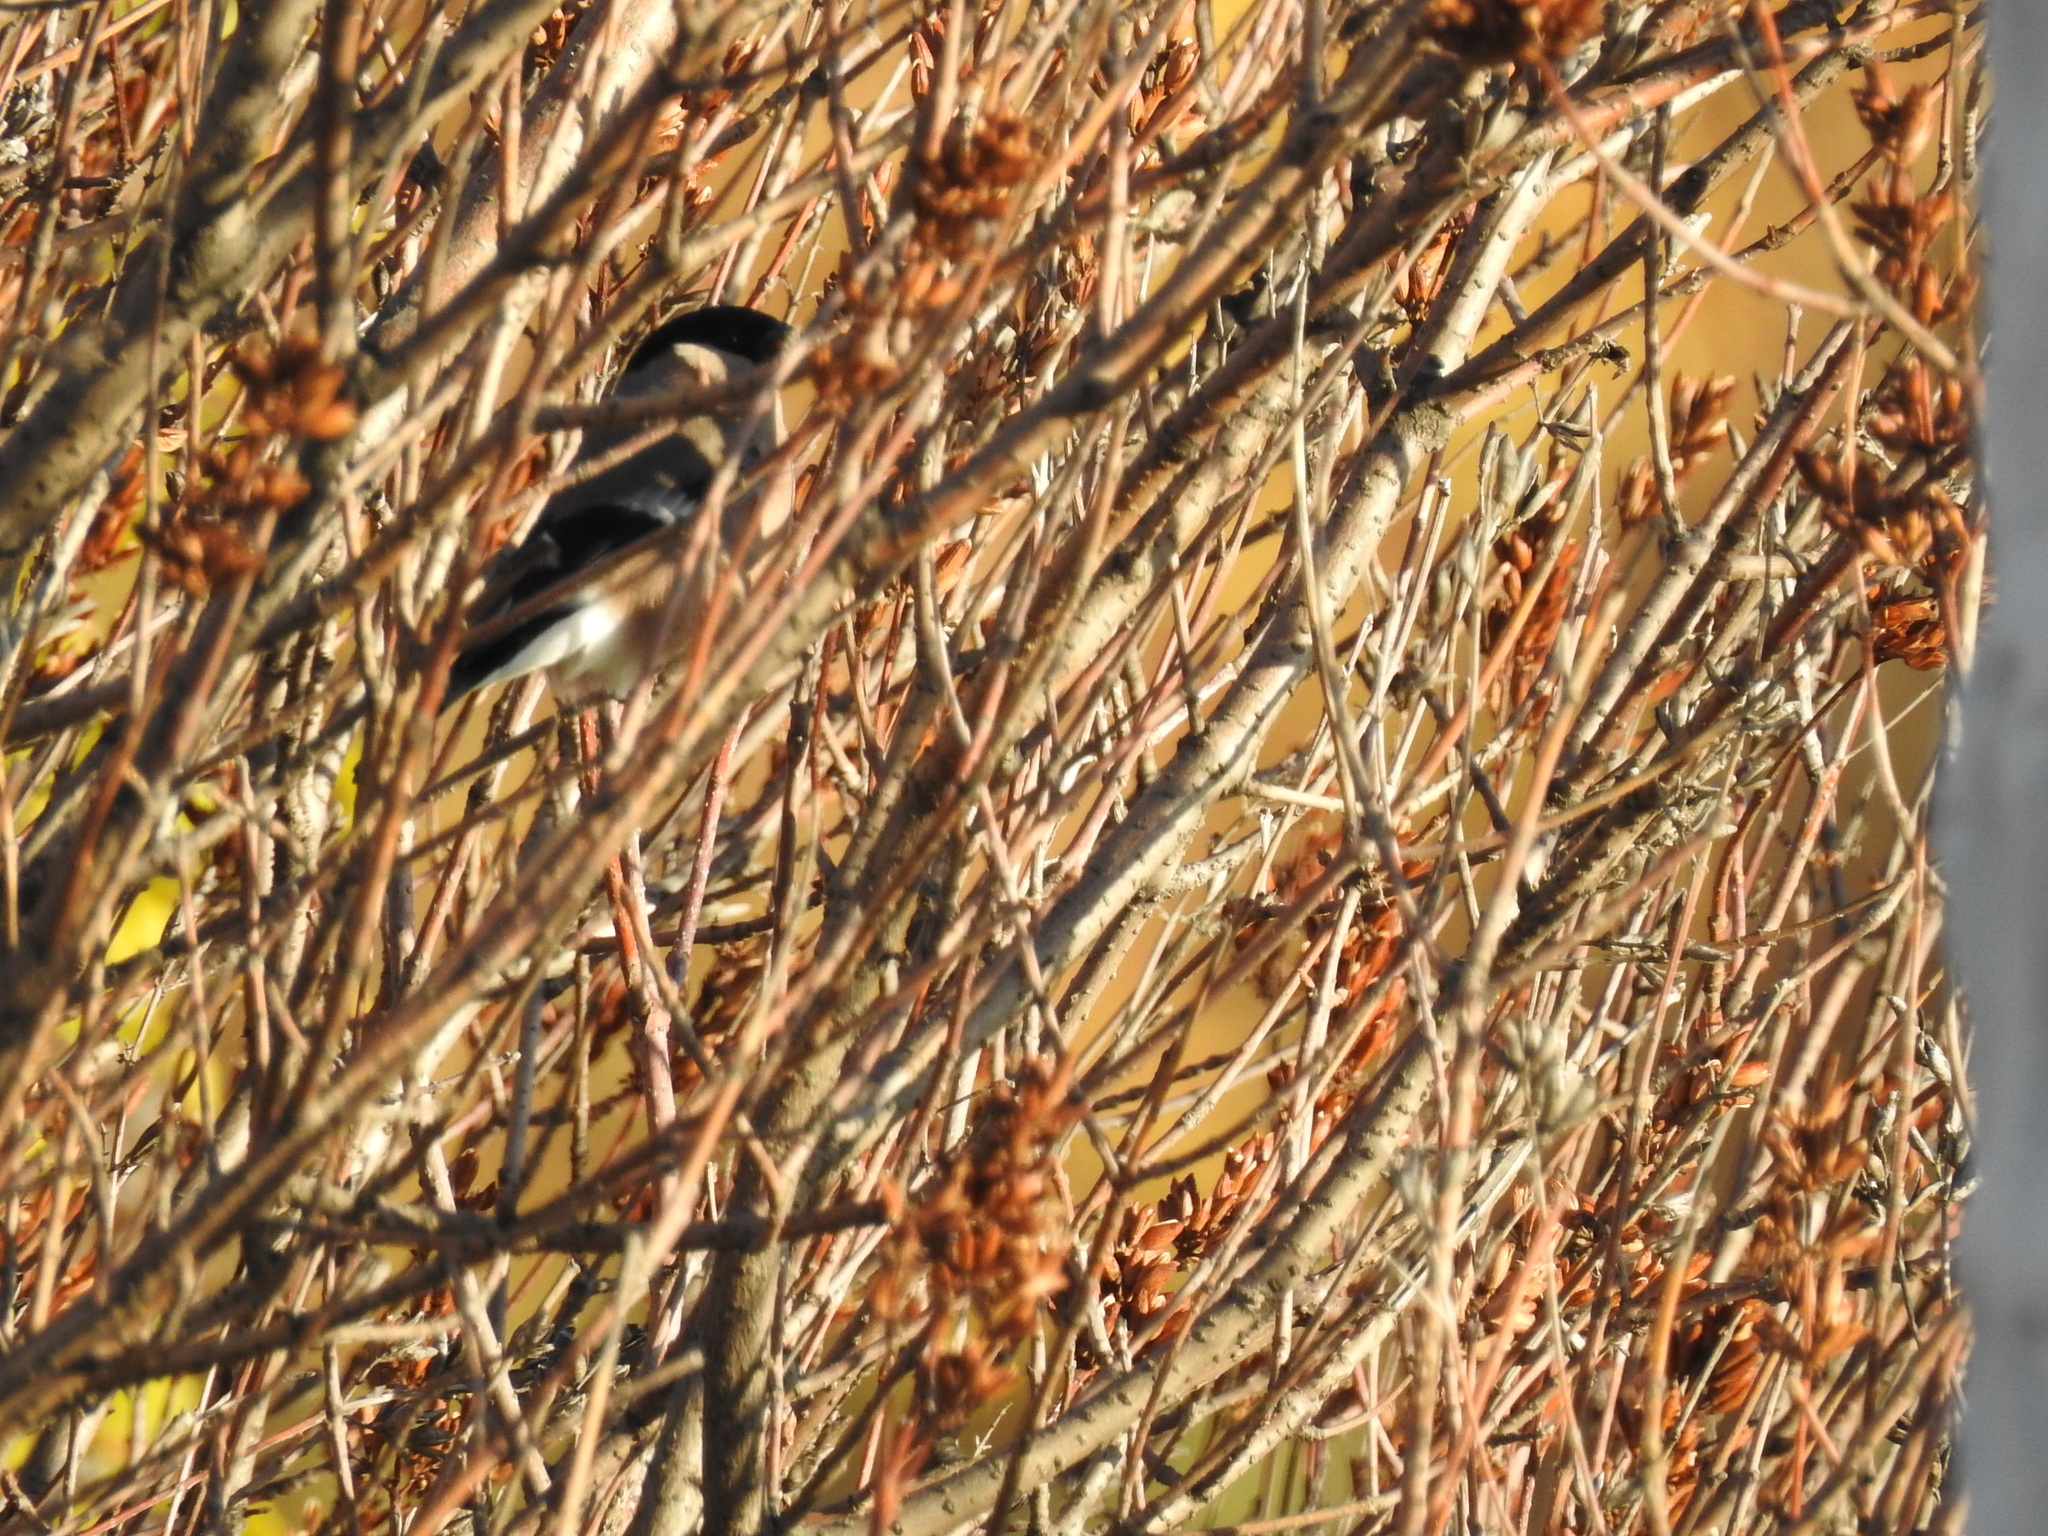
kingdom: Animalia
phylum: Chordata
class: Aves
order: Passeriformes
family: Fringillidae
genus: Pyrrhula
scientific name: Pyrrhula pyrrhula
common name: Eurasian bullfinch
